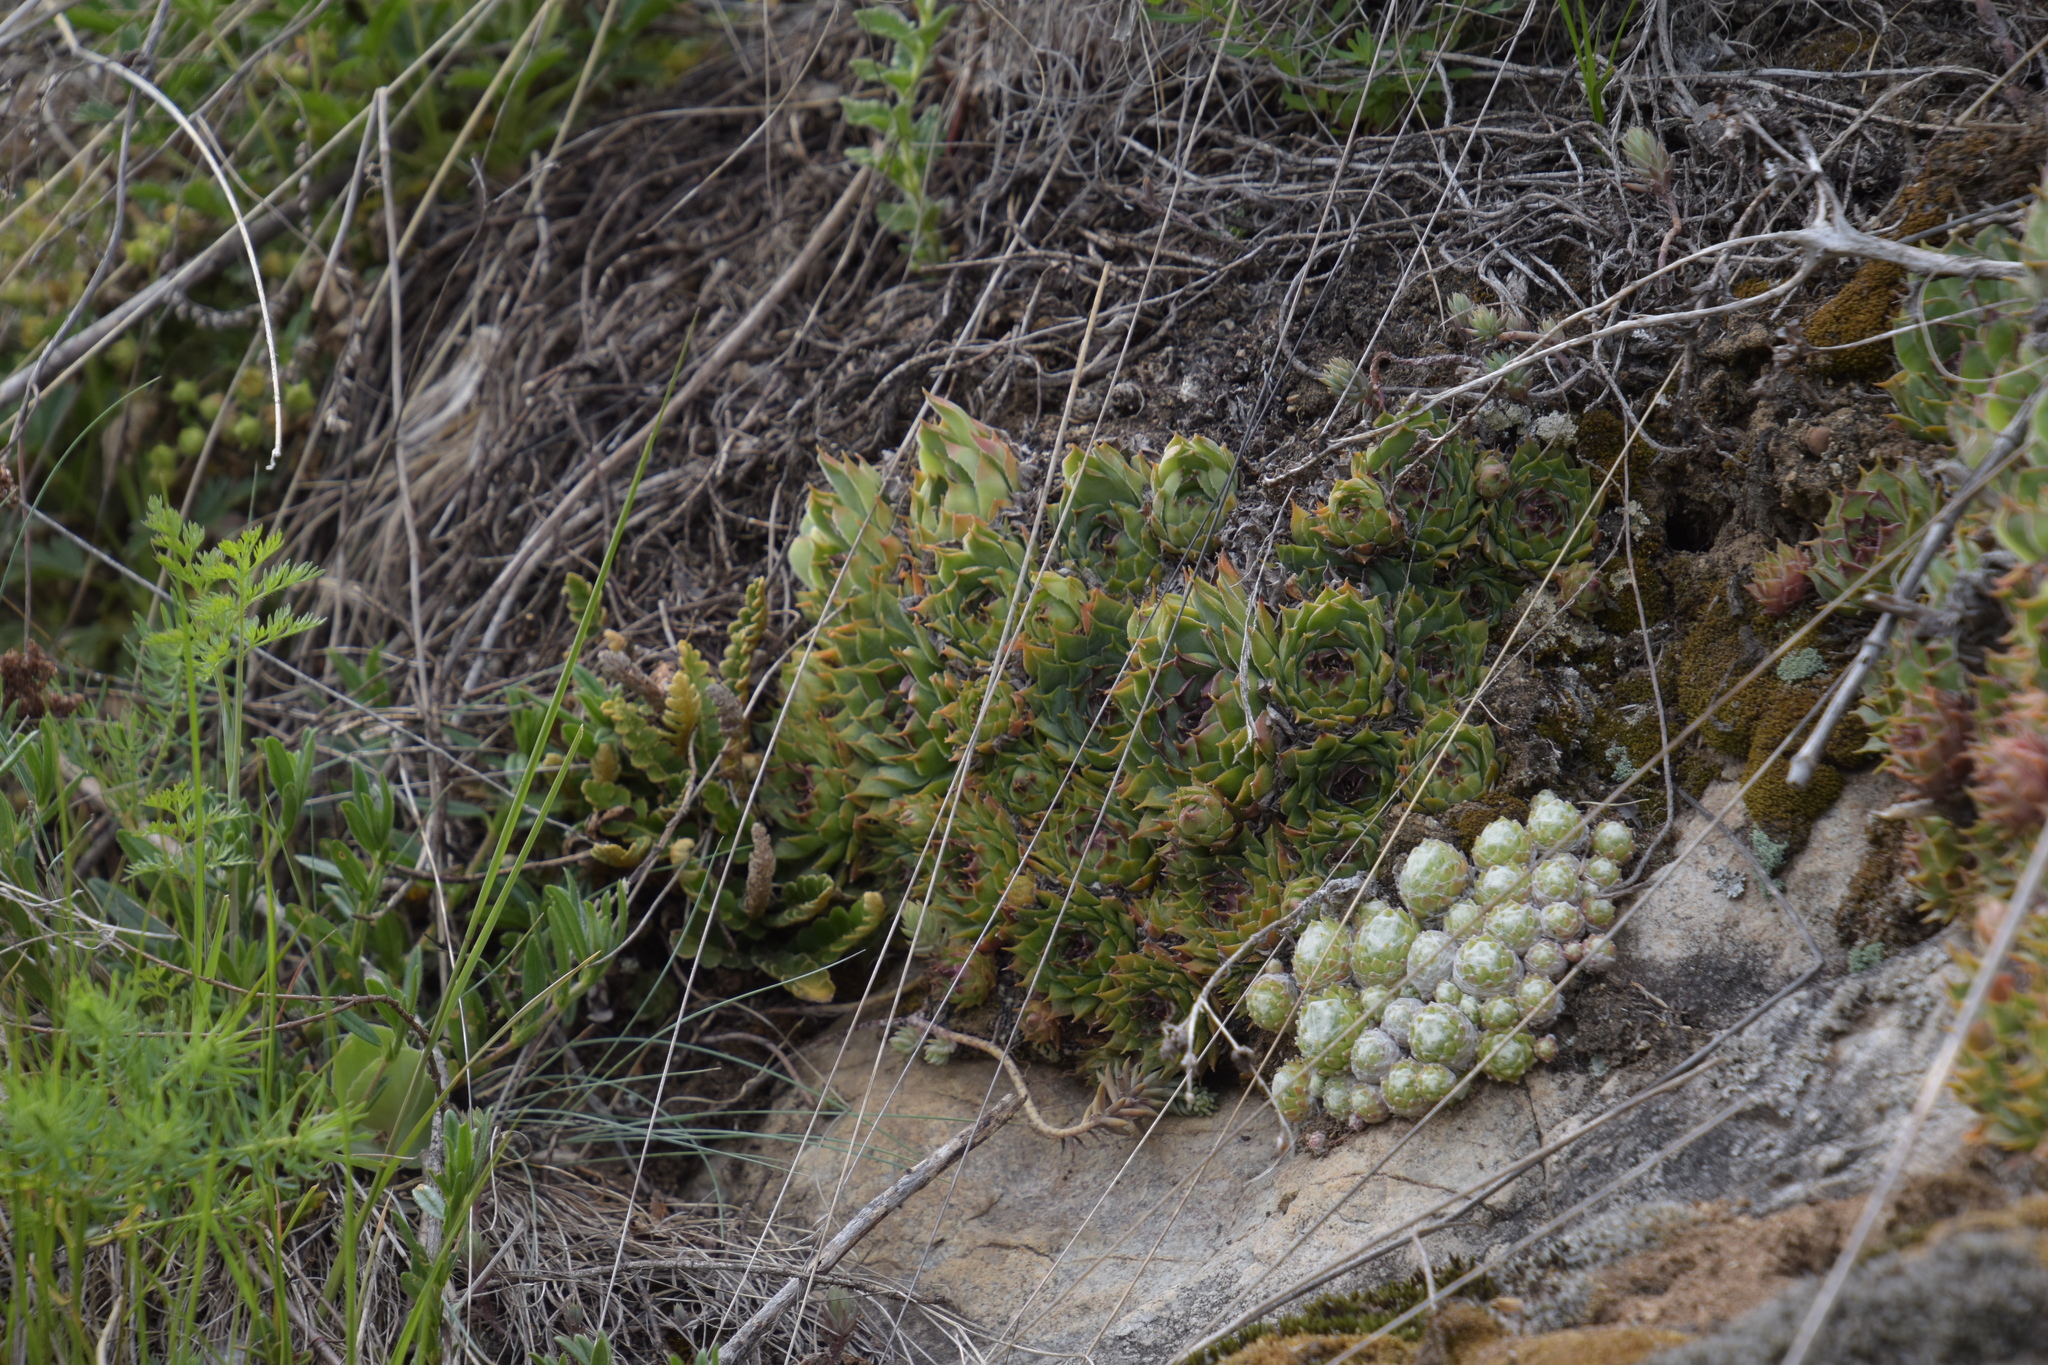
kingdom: Plantae
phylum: Tracheophyta
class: Magnoliopsida
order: Saxifragales
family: Crassulaceae
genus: Sempervivum
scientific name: Sempervivum tectorum
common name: House-leek
